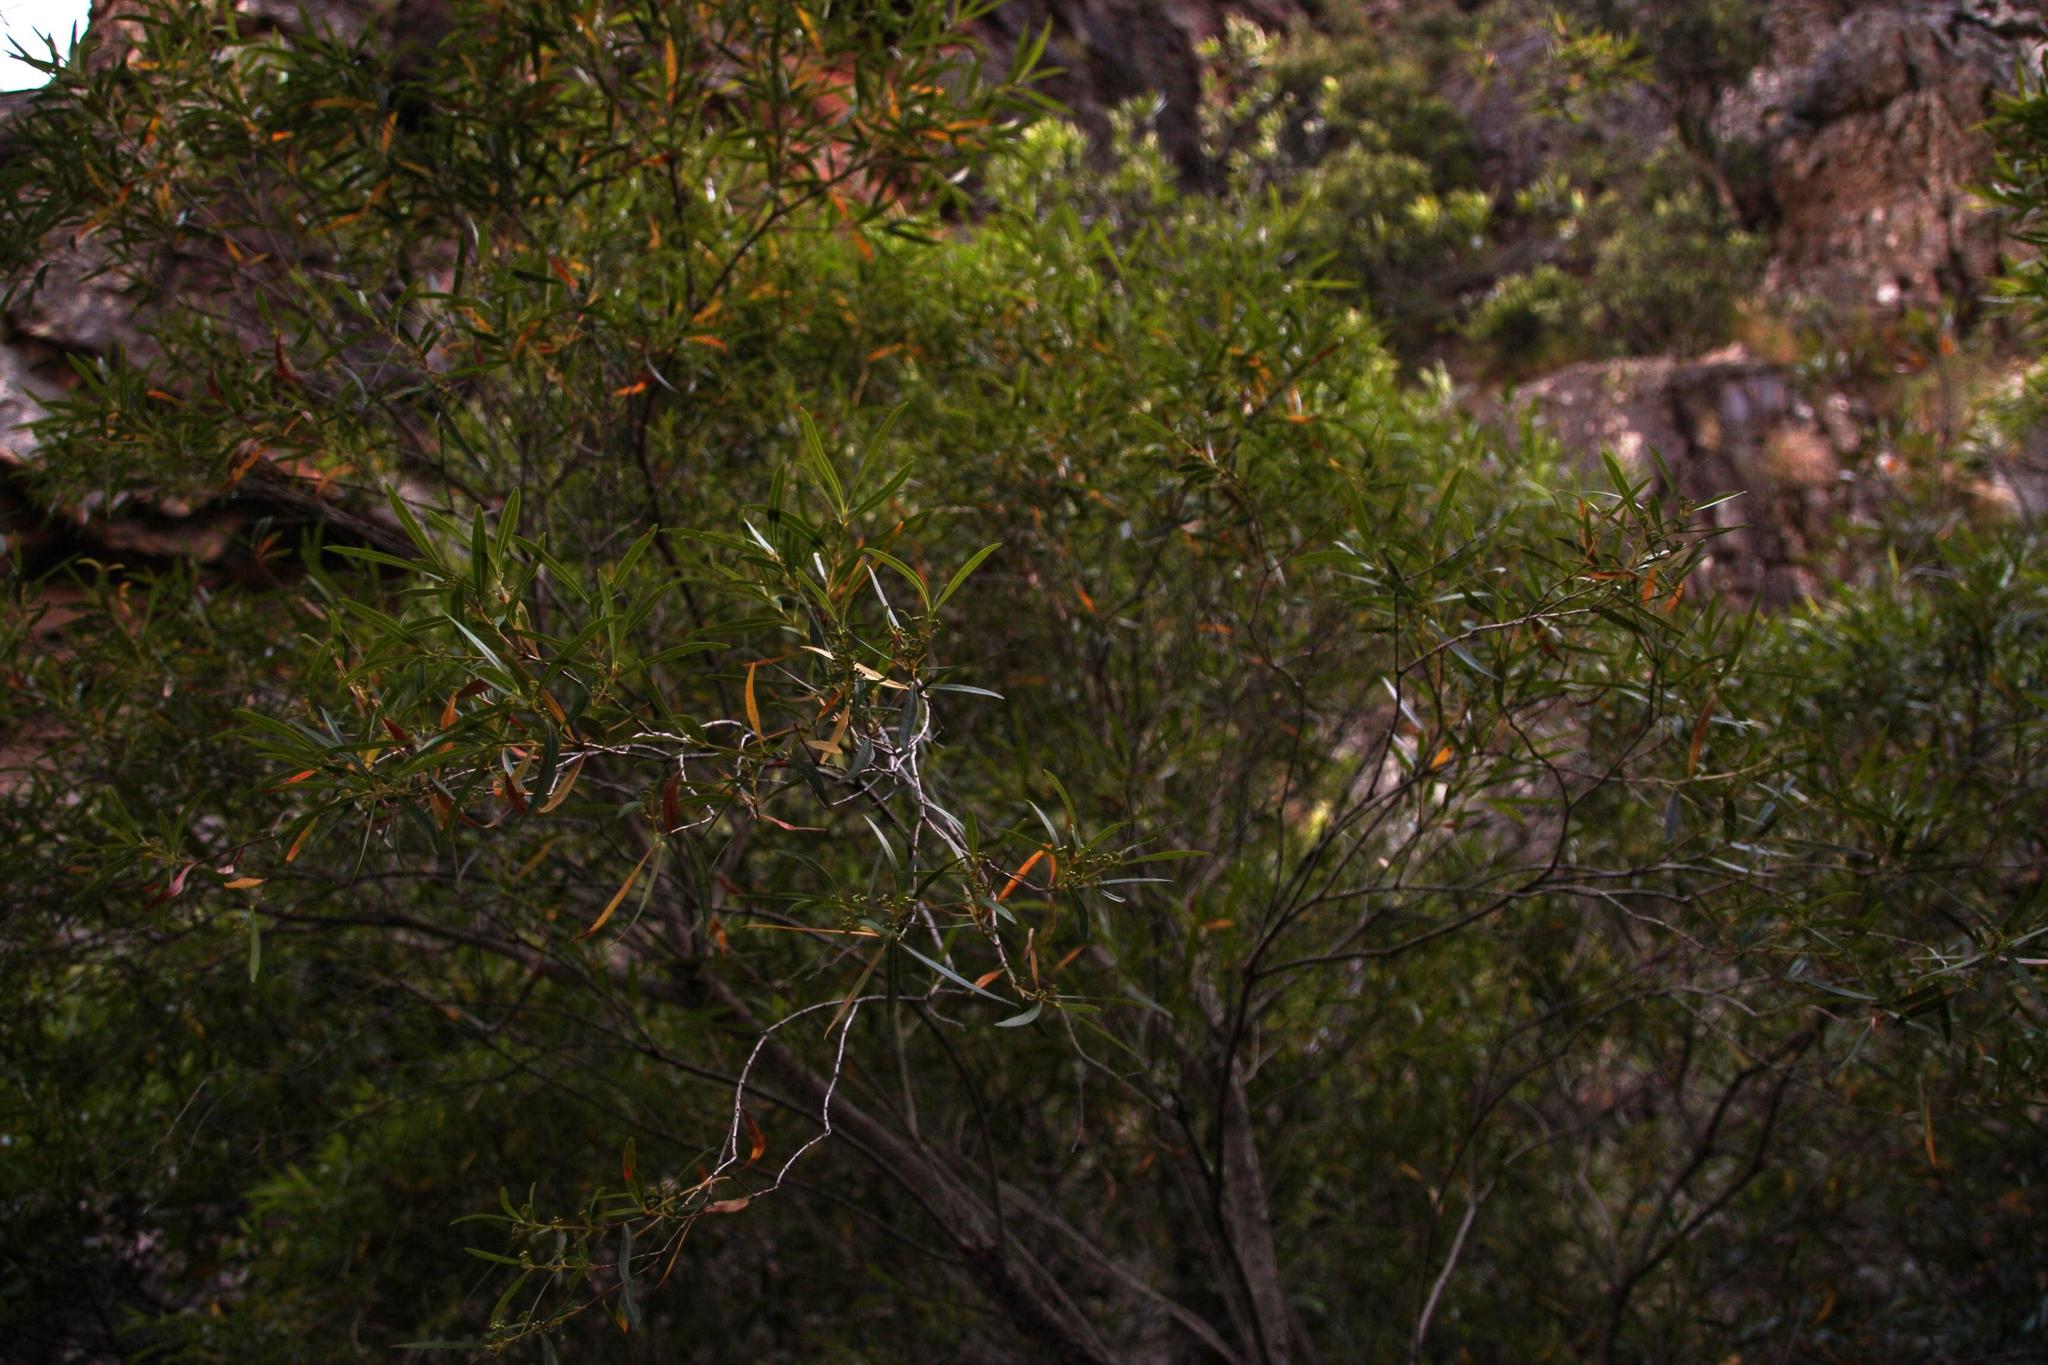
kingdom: Plantae
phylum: Tracheophyta
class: Magnoliopsida
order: Lamiales
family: Oleaceae
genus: Olea
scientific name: Olea europaea
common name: Olive
